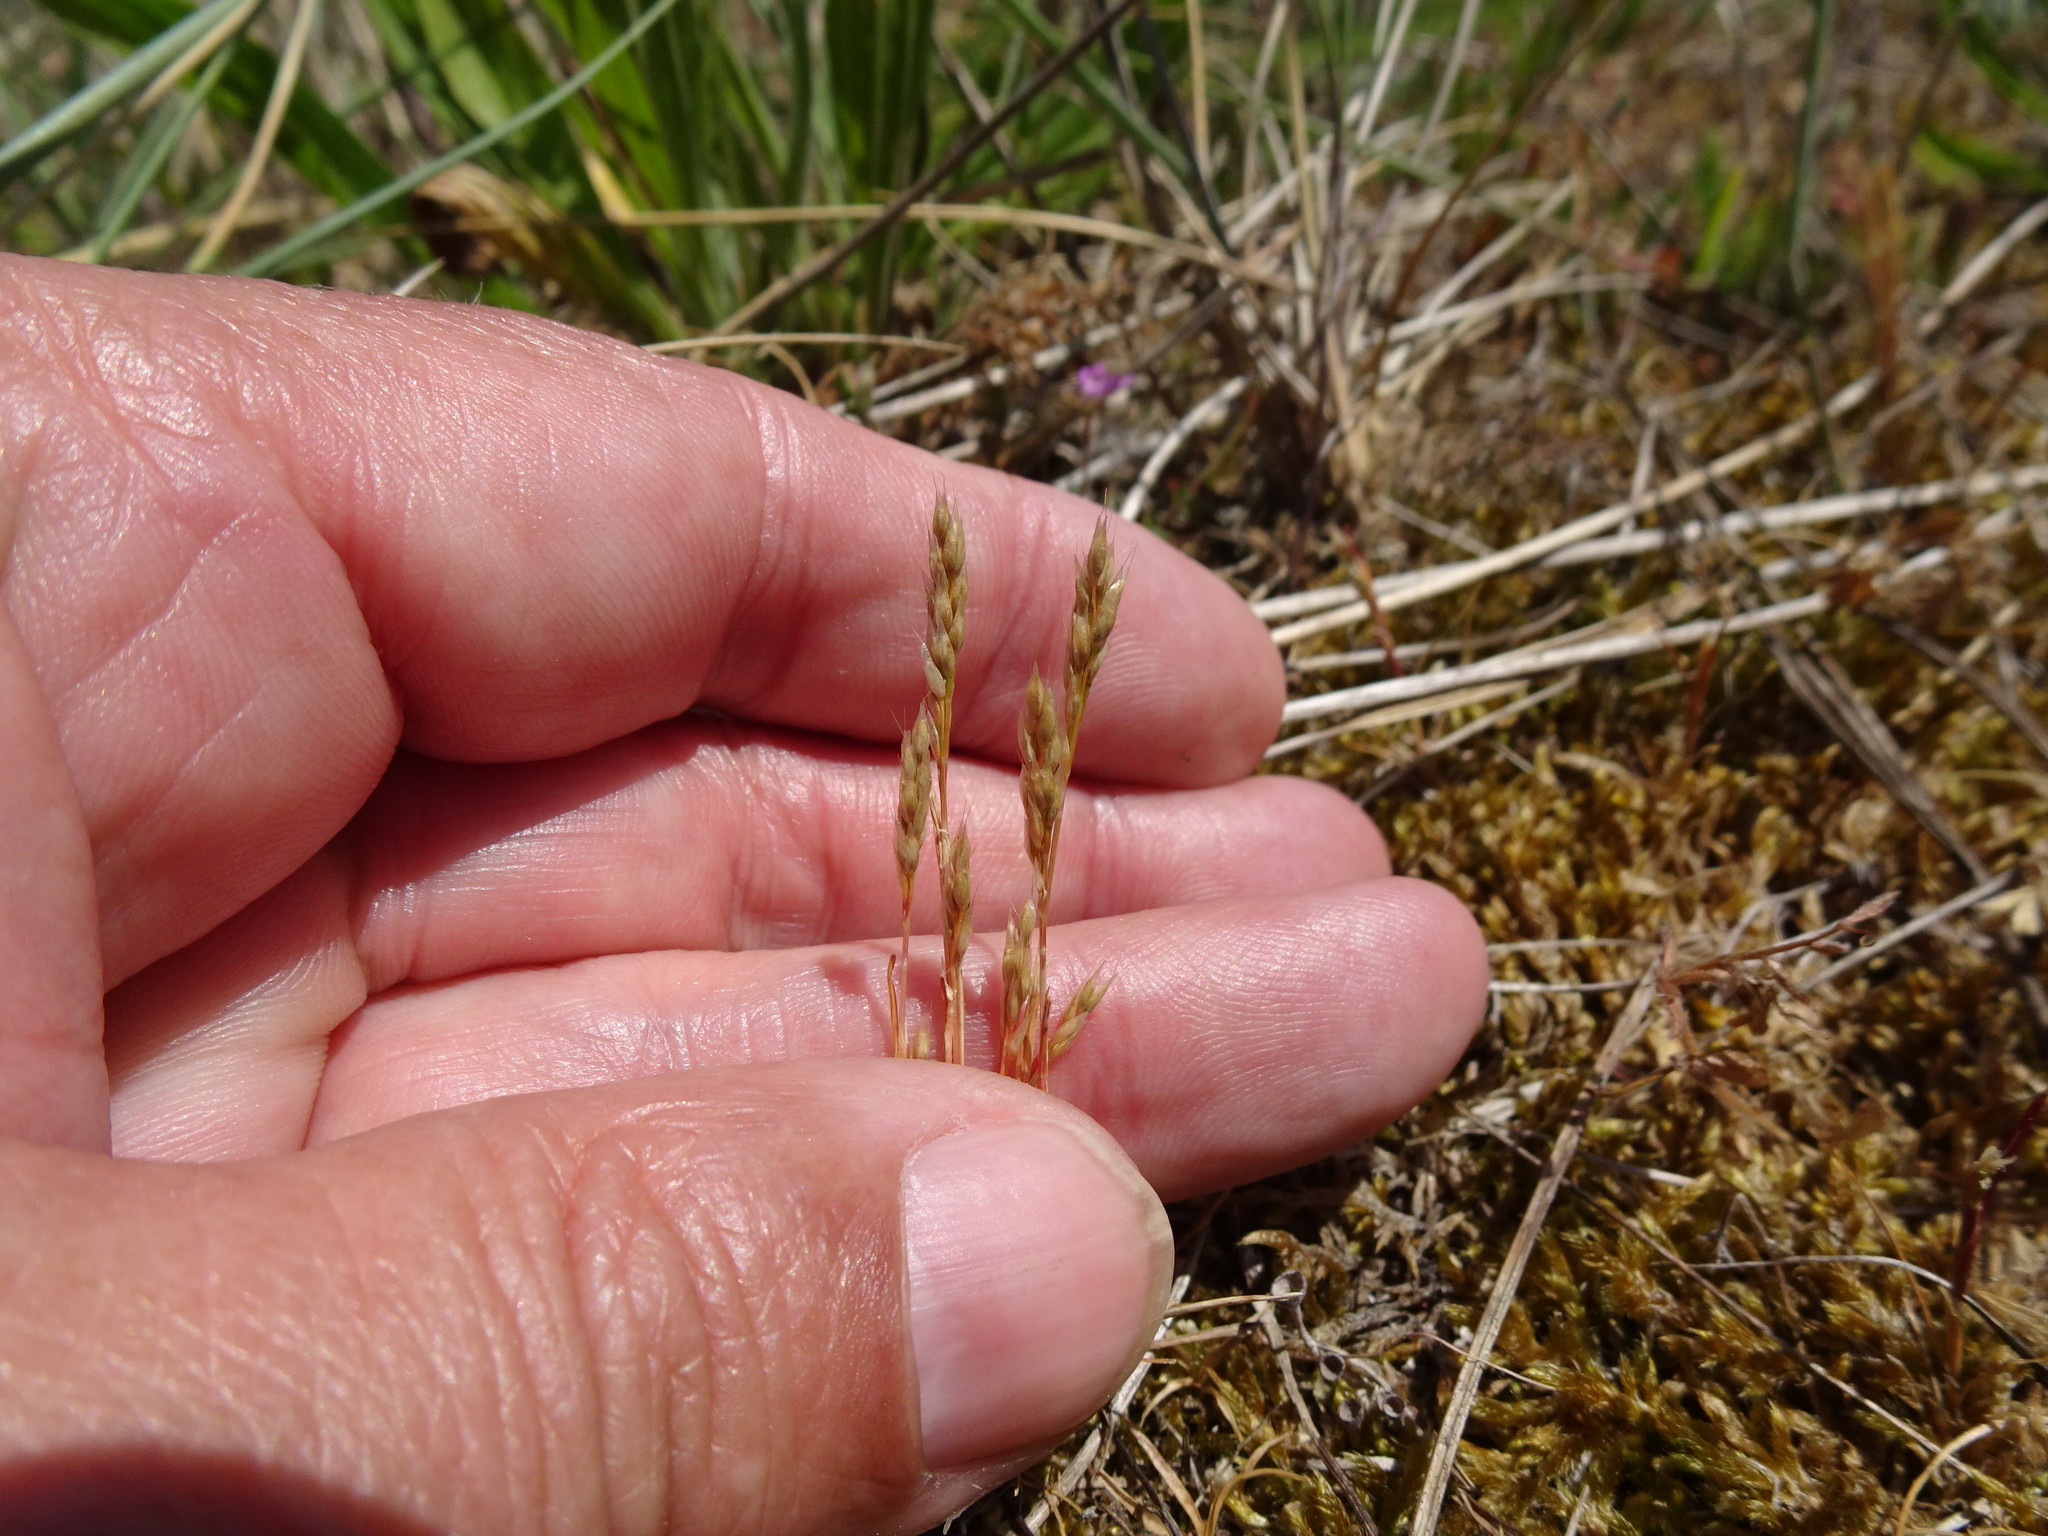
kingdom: Plantae
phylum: Tracheophyta
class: Liliopsida
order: Poales
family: Poaceae
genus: Aira
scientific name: Aira praecox
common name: Early hair-grass
